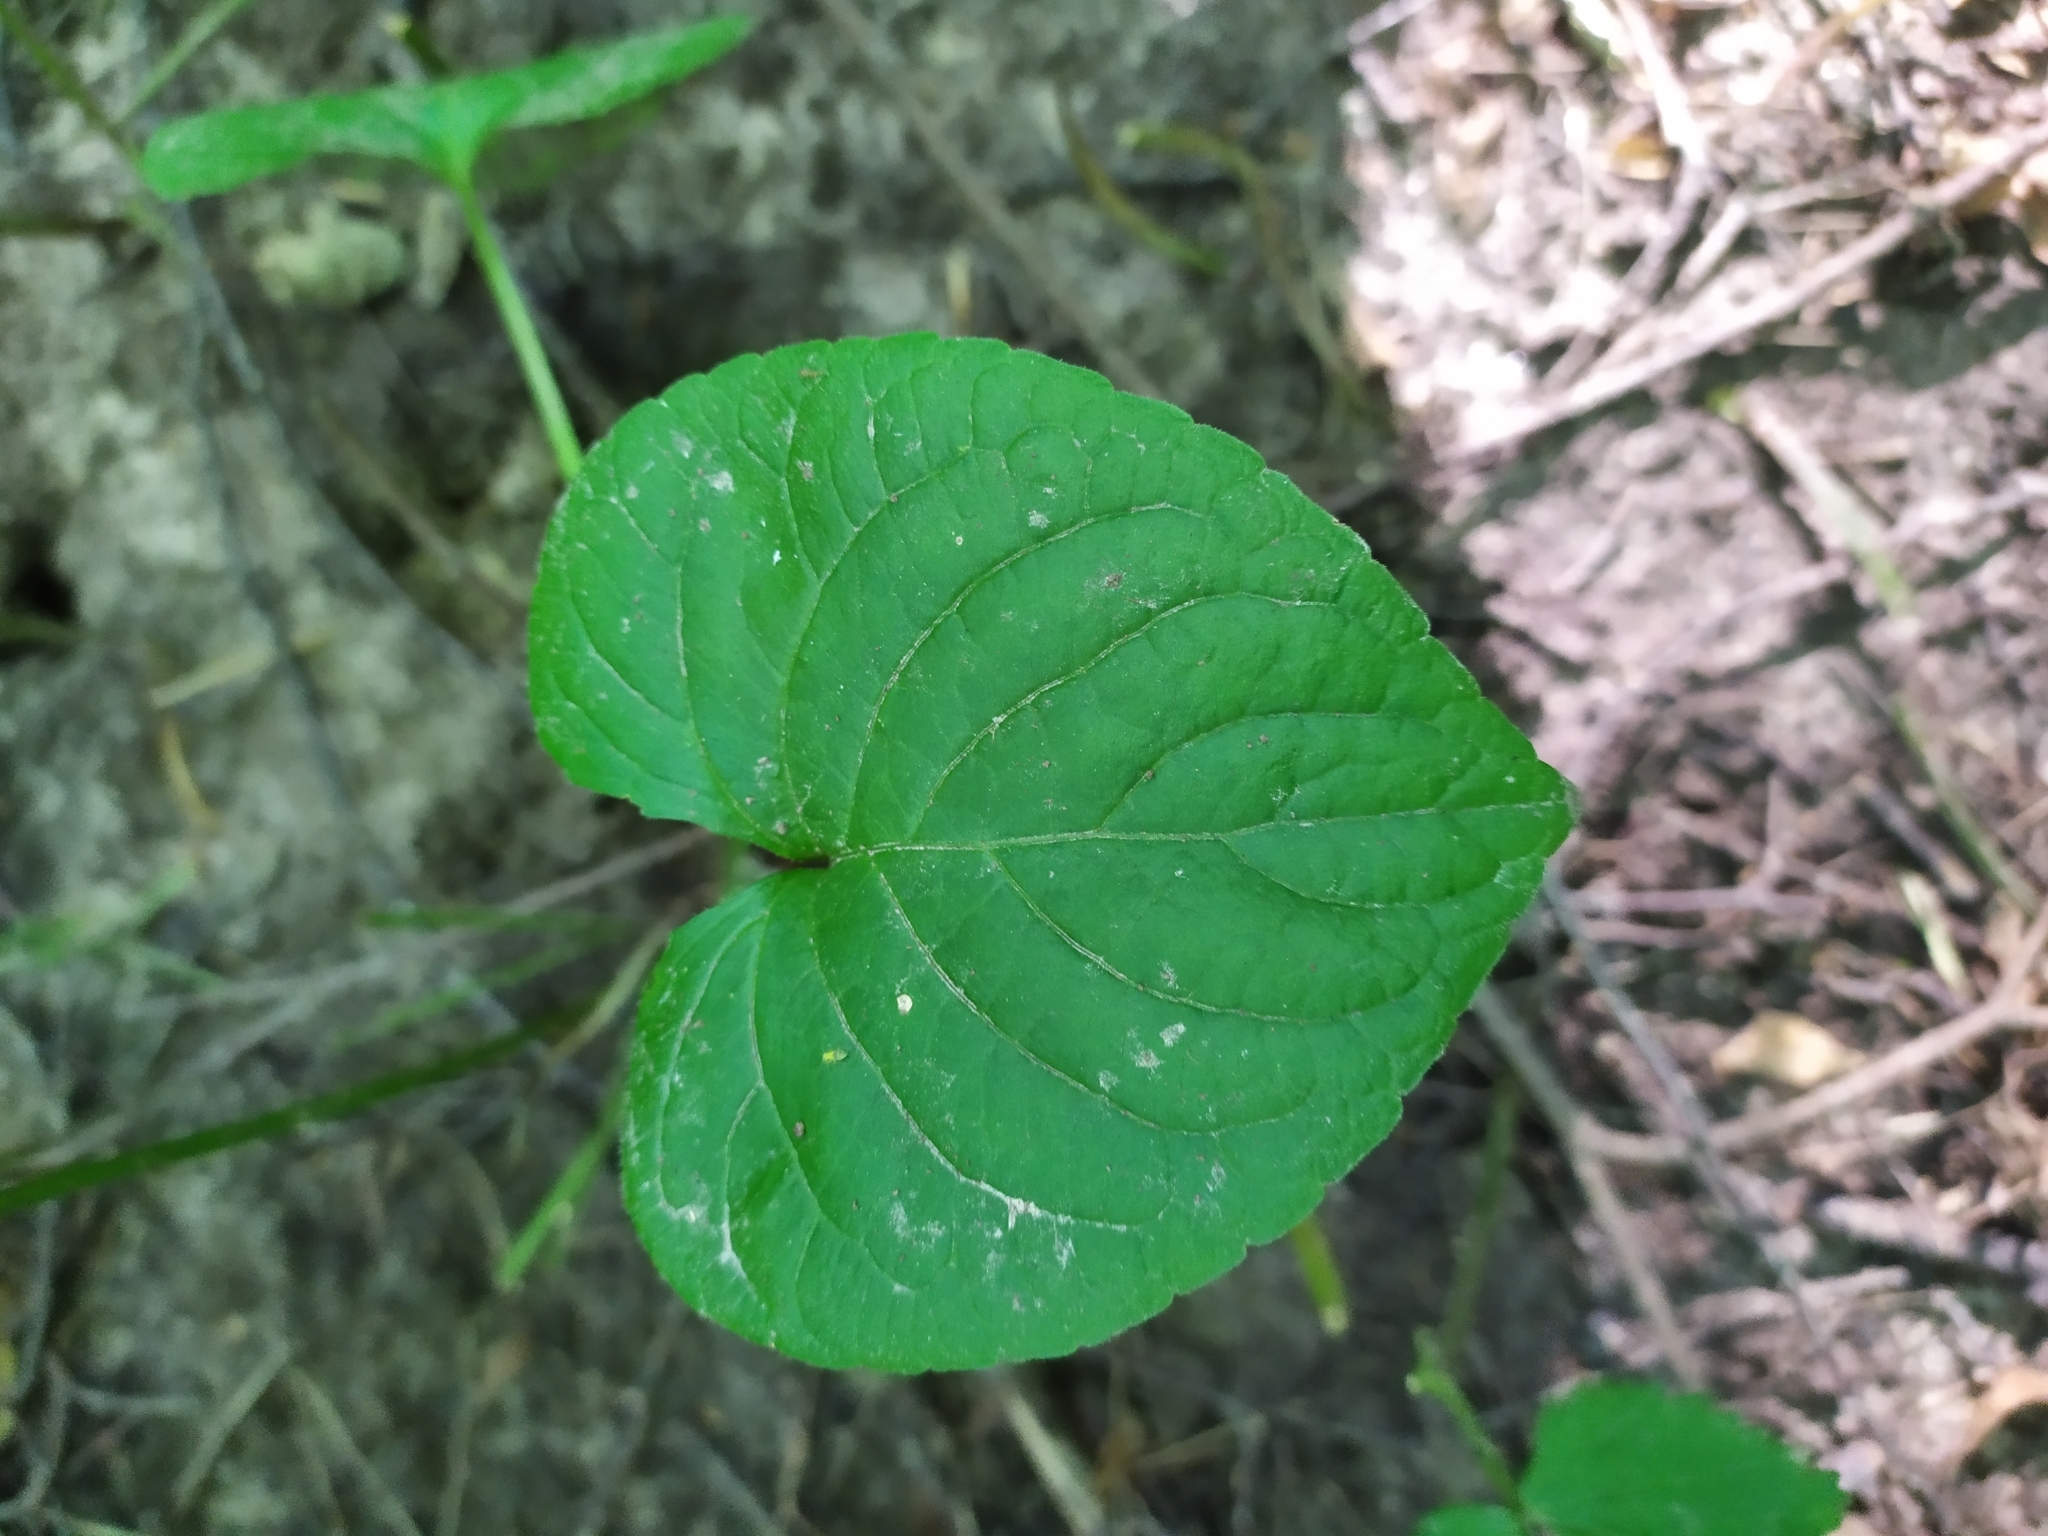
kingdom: Plantae
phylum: Tracheophyta
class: Magnoliopsida
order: Malpighiales
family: Violaceae
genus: Viola
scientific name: Viola mirabilis
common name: Wonder violet
